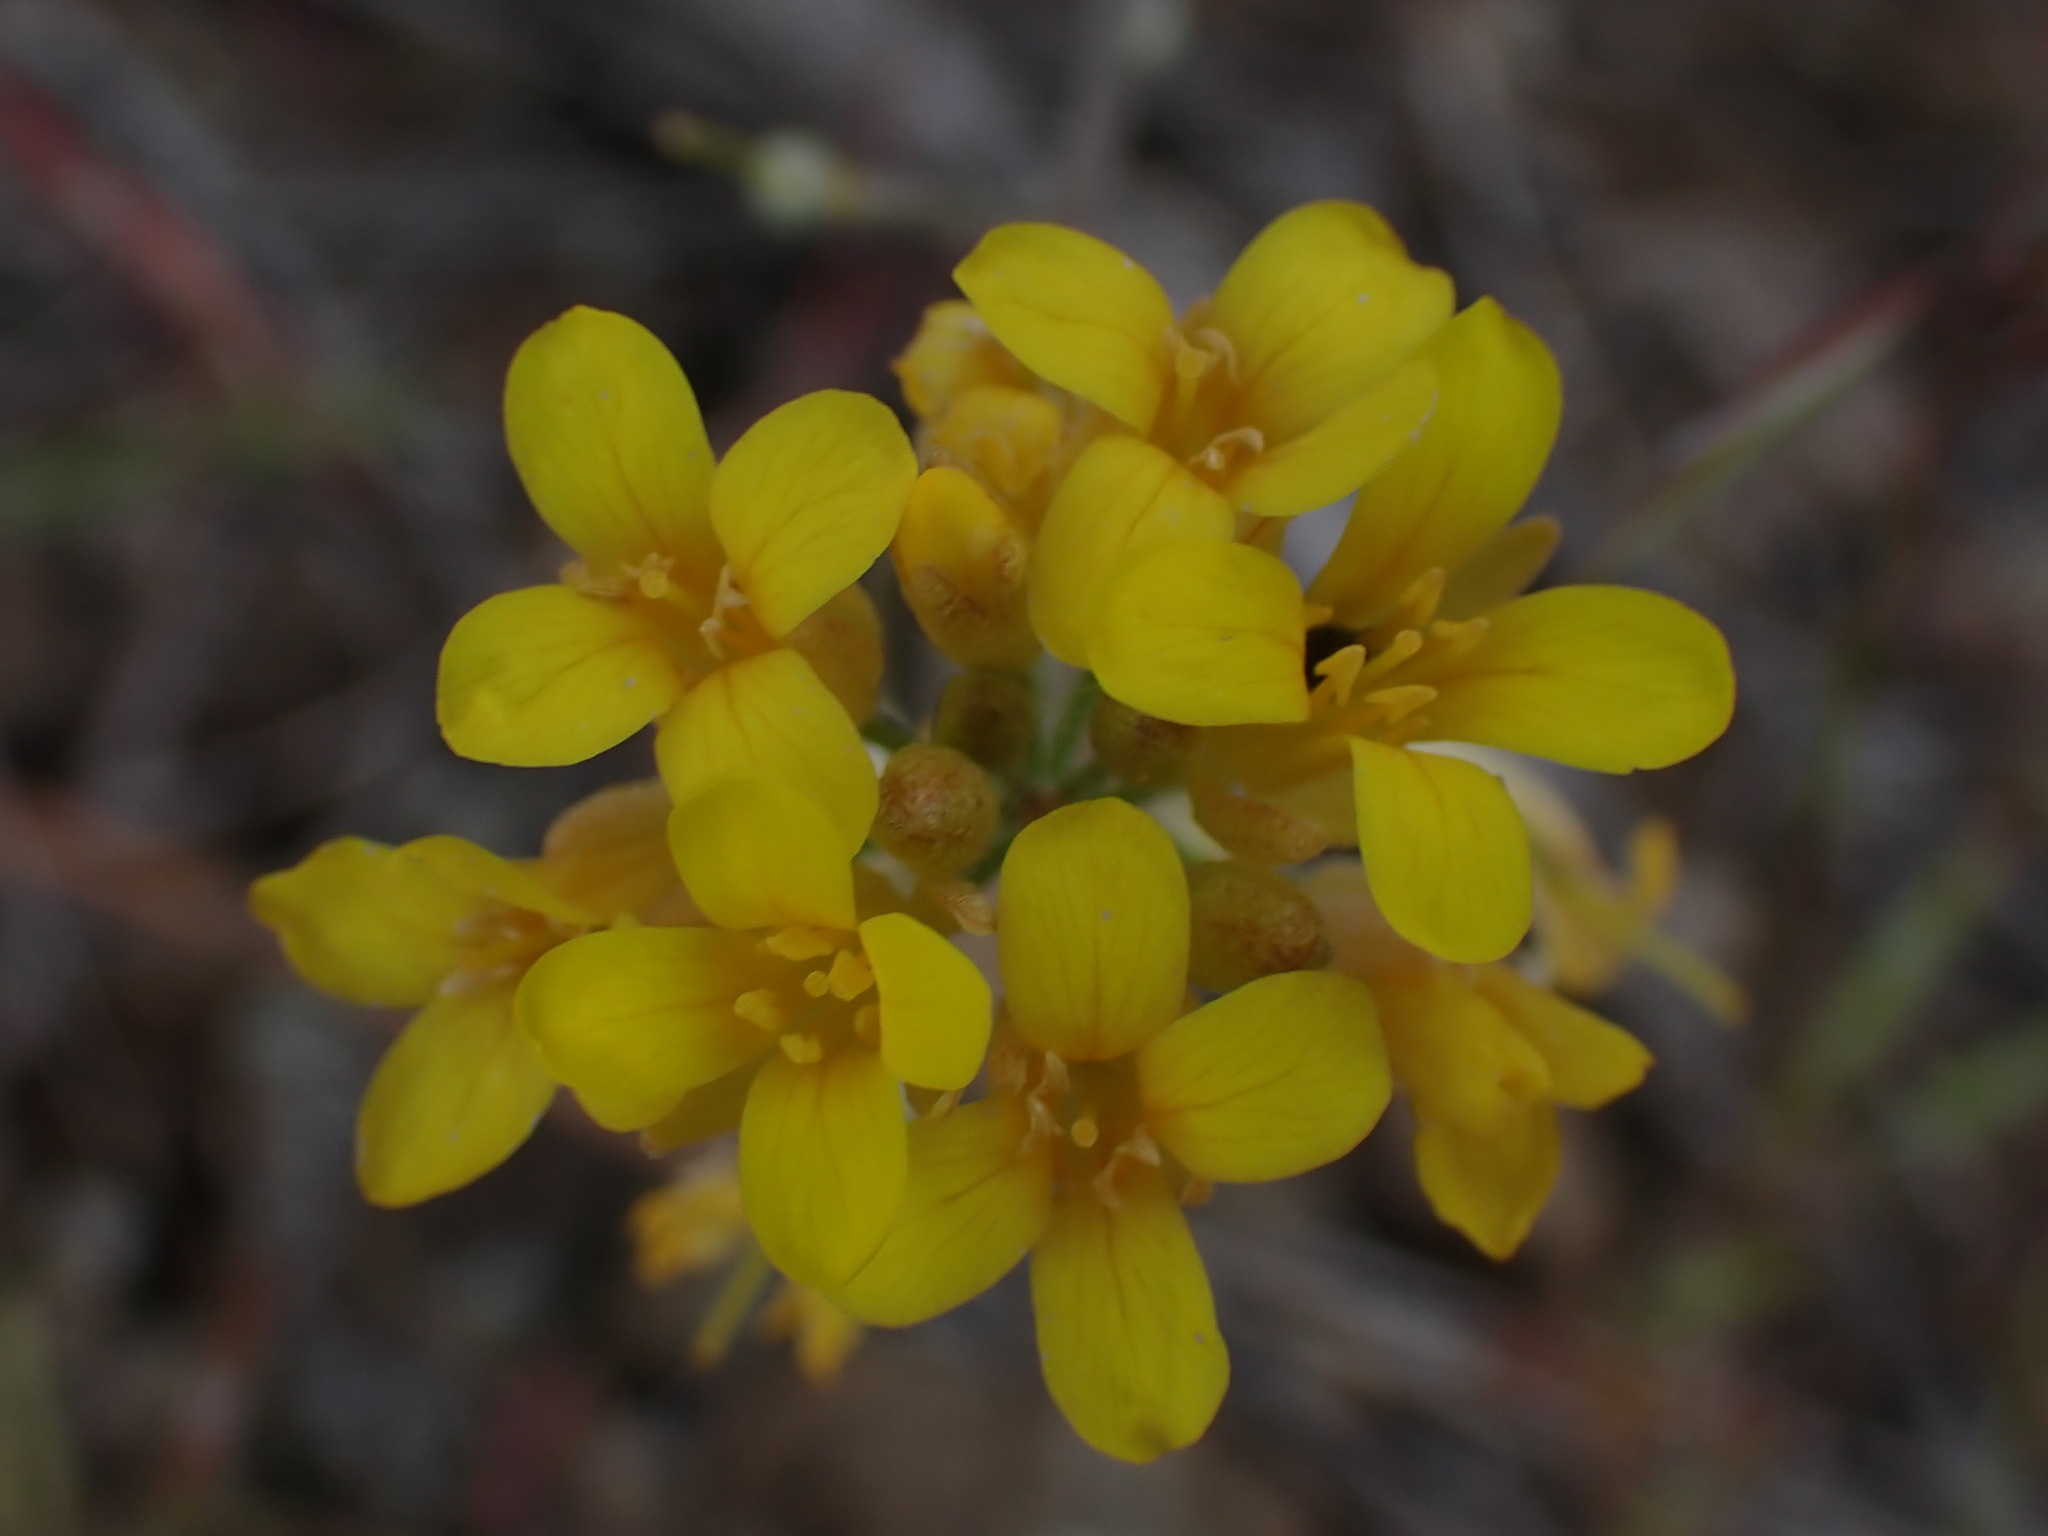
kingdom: Plantae
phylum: Tracheophyta
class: Magnoliopsida
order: Brassicales
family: Brassicaceae
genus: Physaria
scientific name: Physaria douglasii
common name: Douglas's bladderpod
